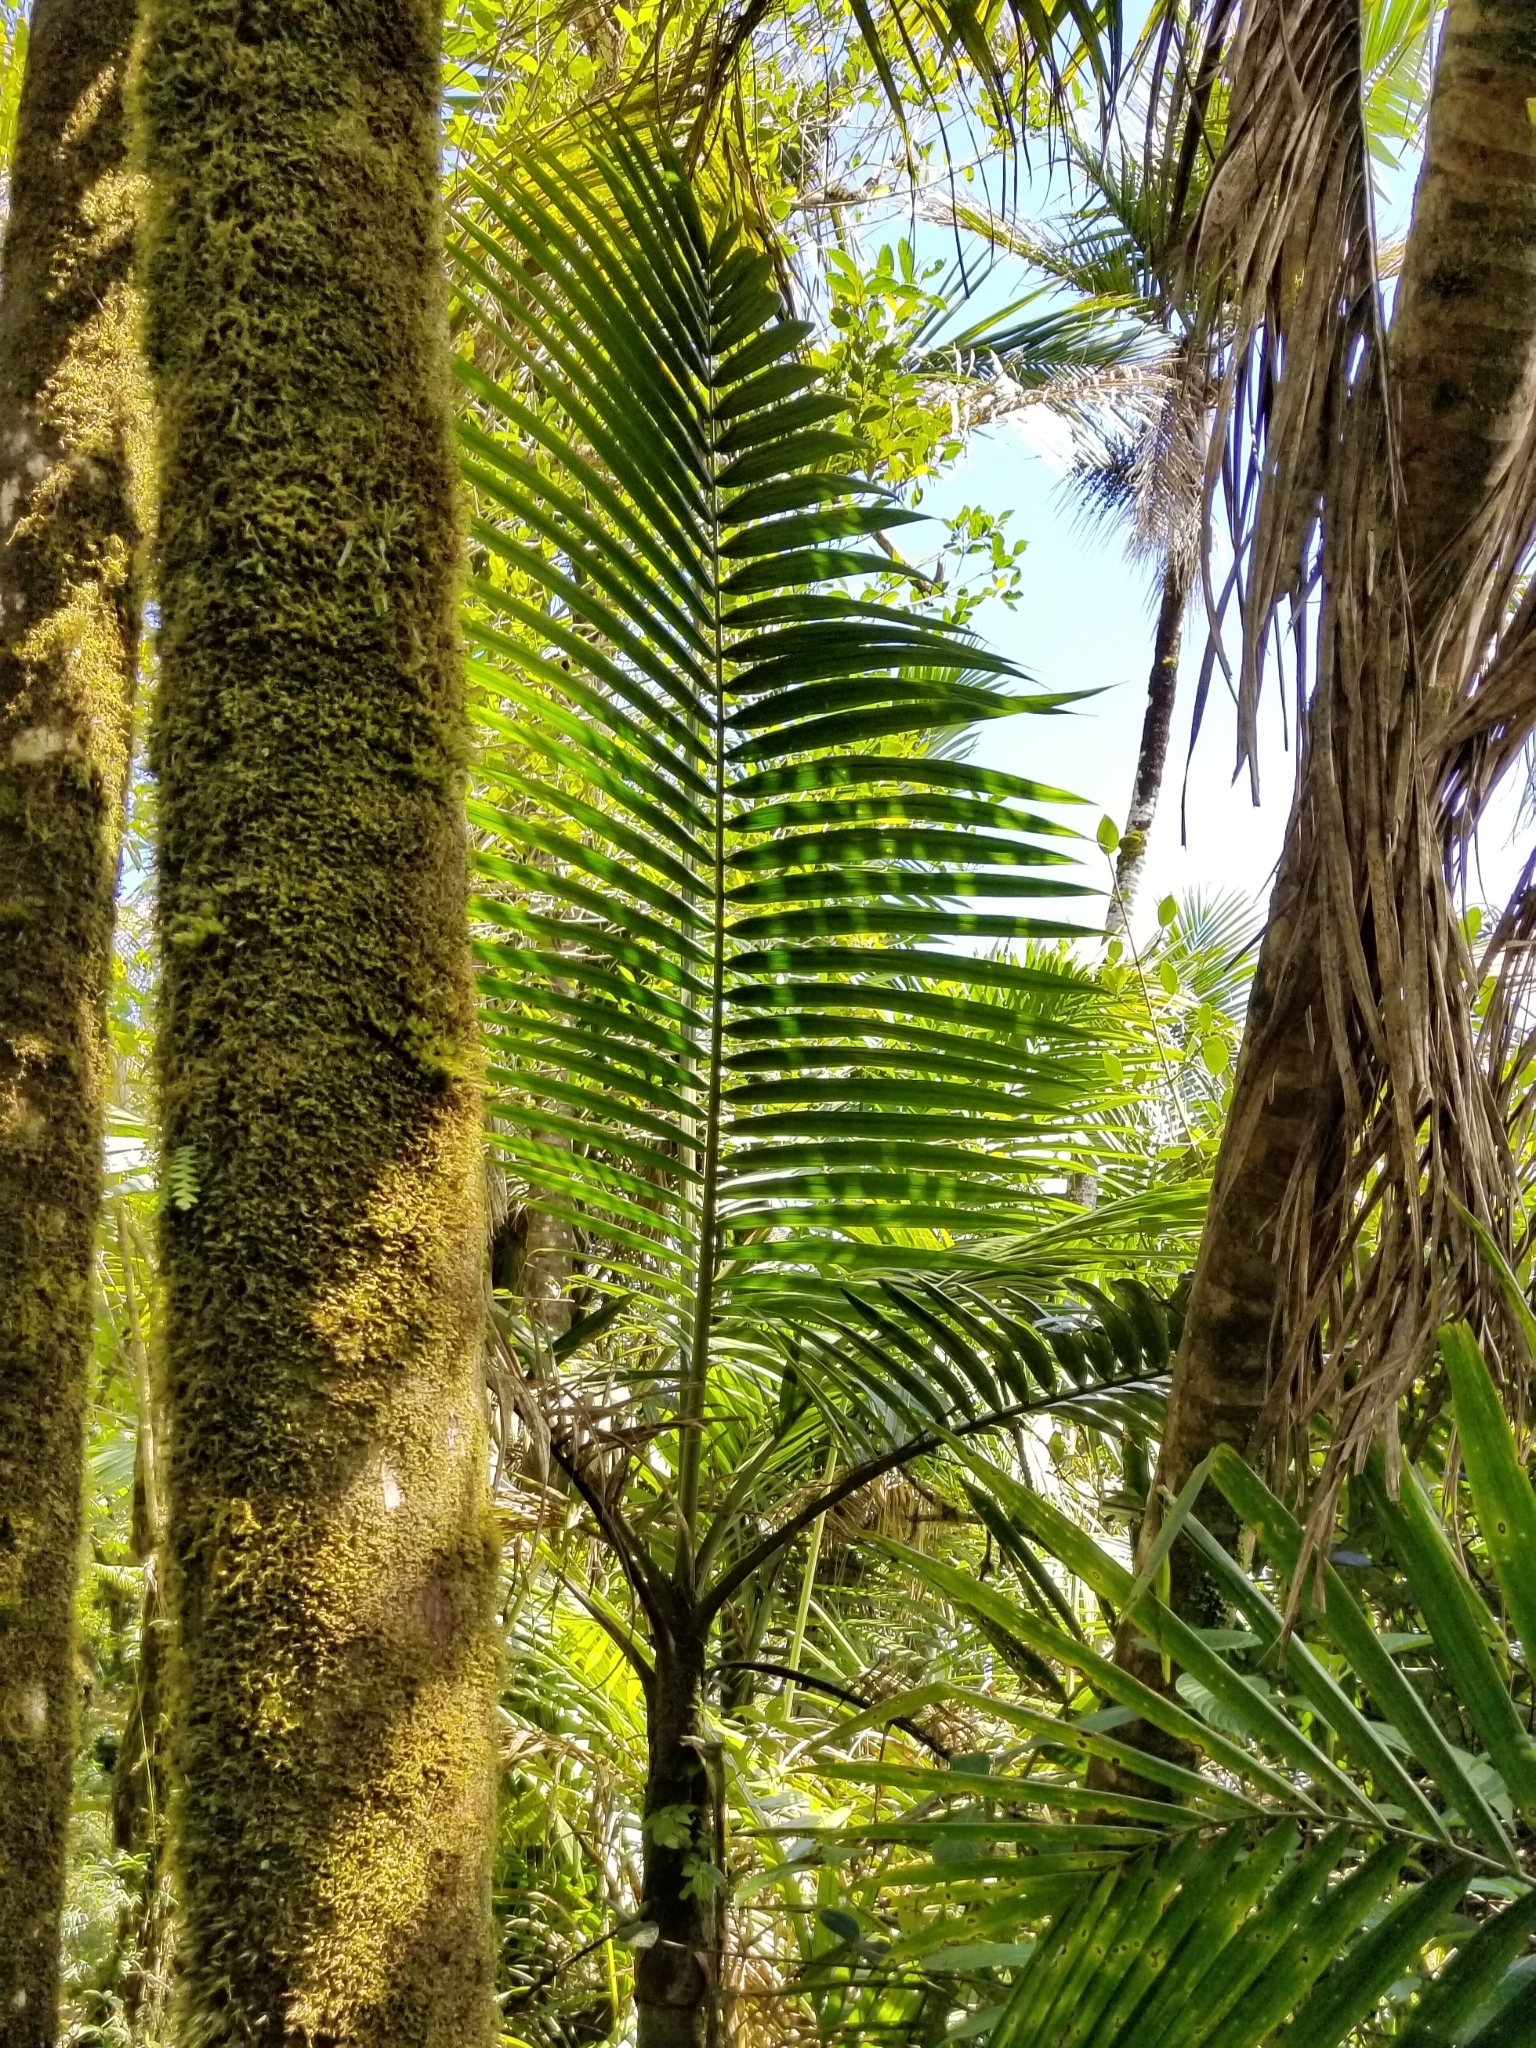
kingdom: Plantae
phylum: Tracheophyta
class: Liliopsida
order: Arecales
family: Arecaceae
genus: Prestoea
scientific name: Prestoea acuminata
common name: Sierran palm
